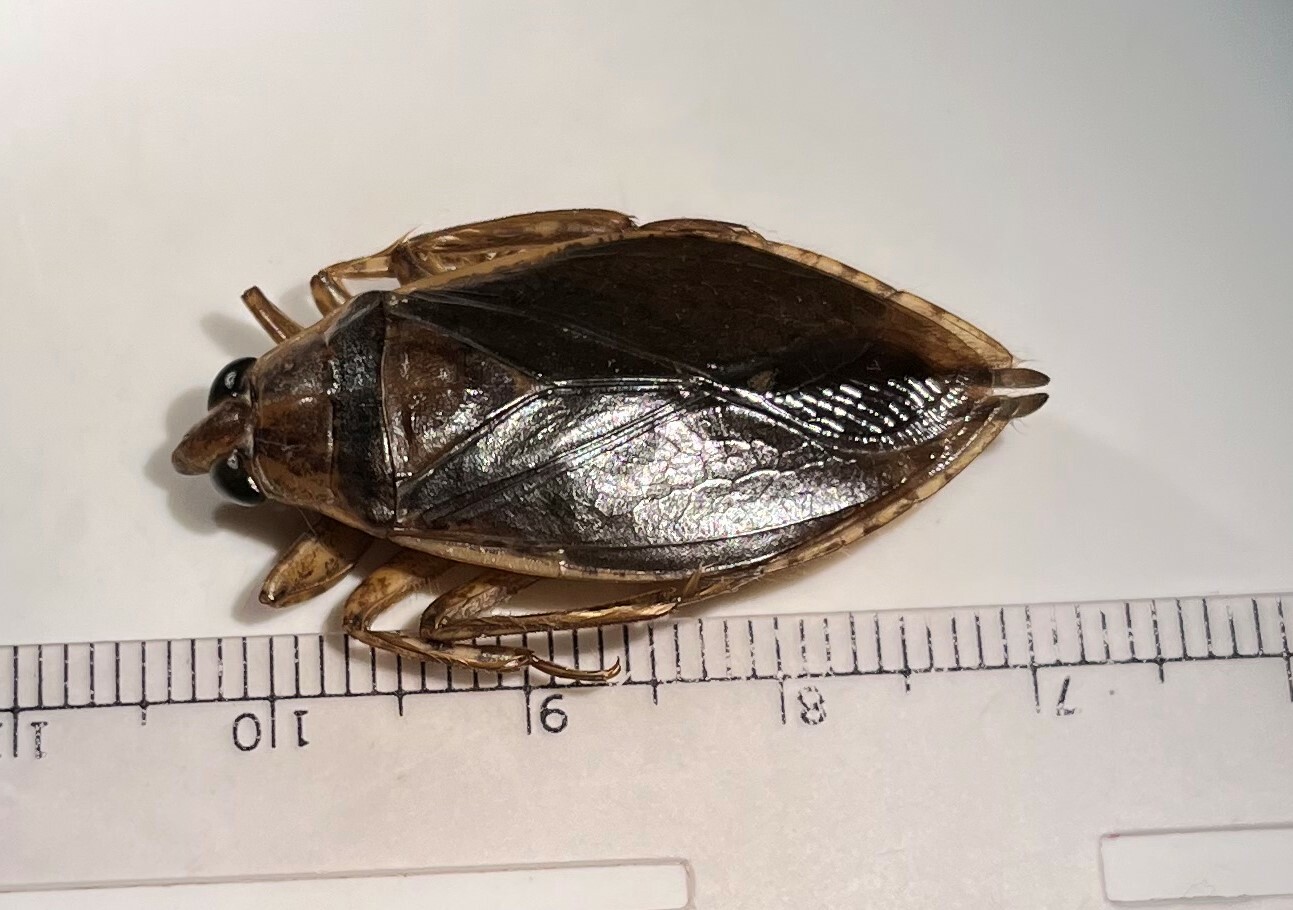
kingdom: Animalia
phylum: Arthropoda
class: Insecta
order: Hemiptera
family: Belostomatidae
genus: Belostoma
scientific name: Belostoma subspinosum
